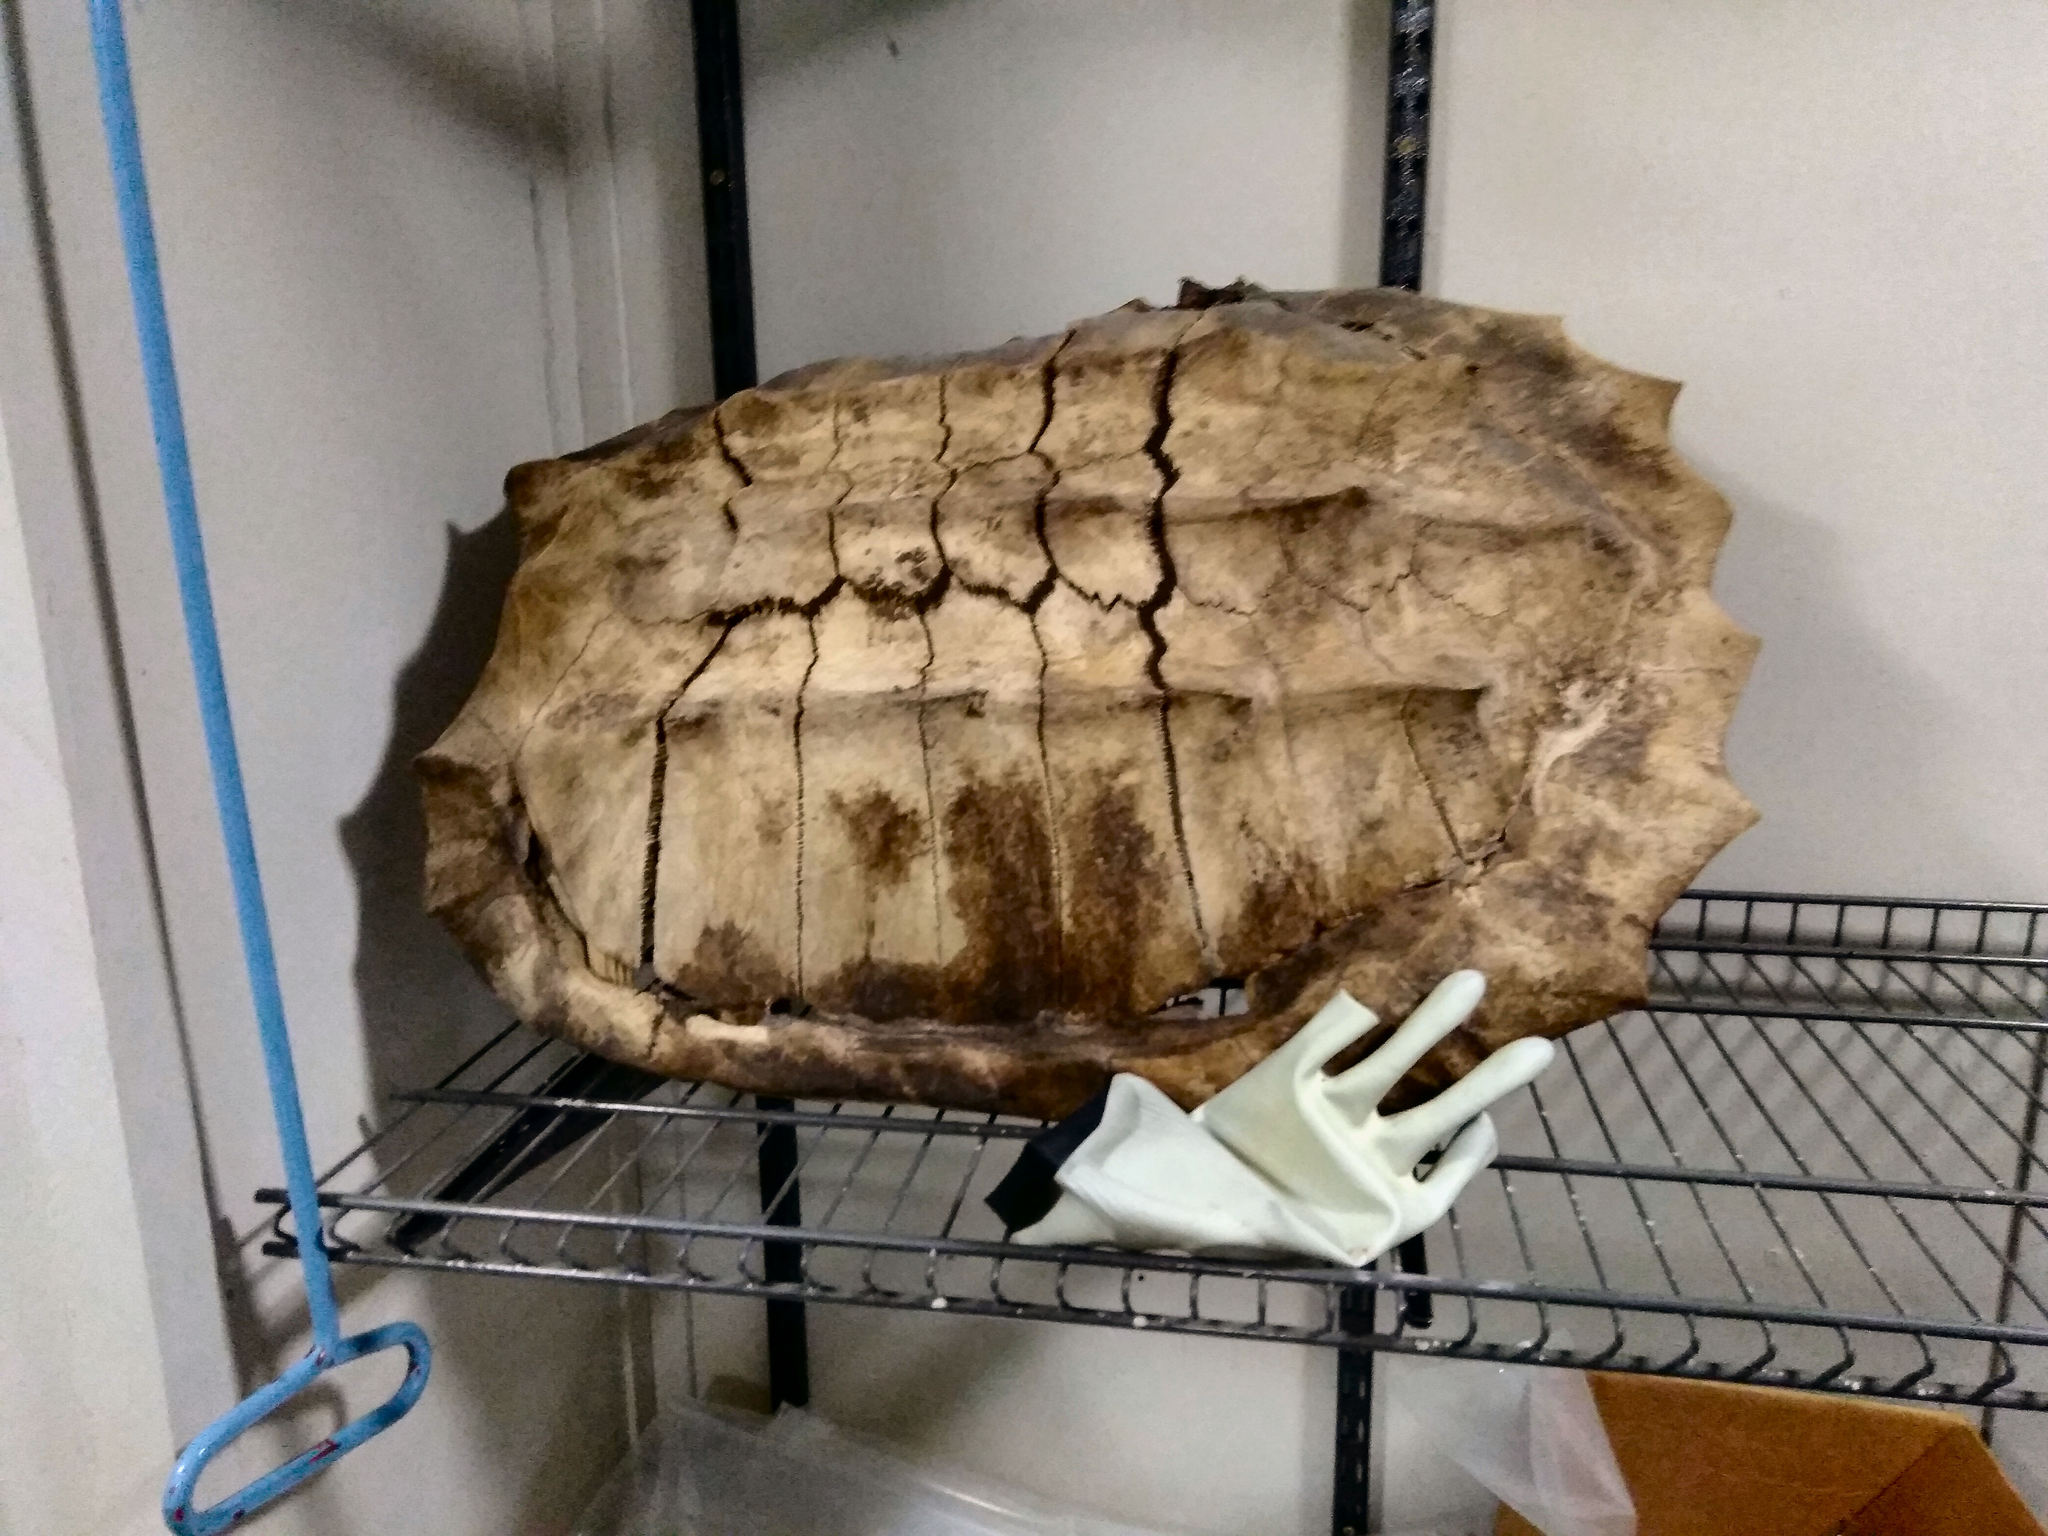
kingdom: Animalia
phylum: Chordata
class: Testudines
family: Chelydridae
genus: Macrochelys
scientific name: Macrochelys temminckii
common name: Alligator snapping turtle
